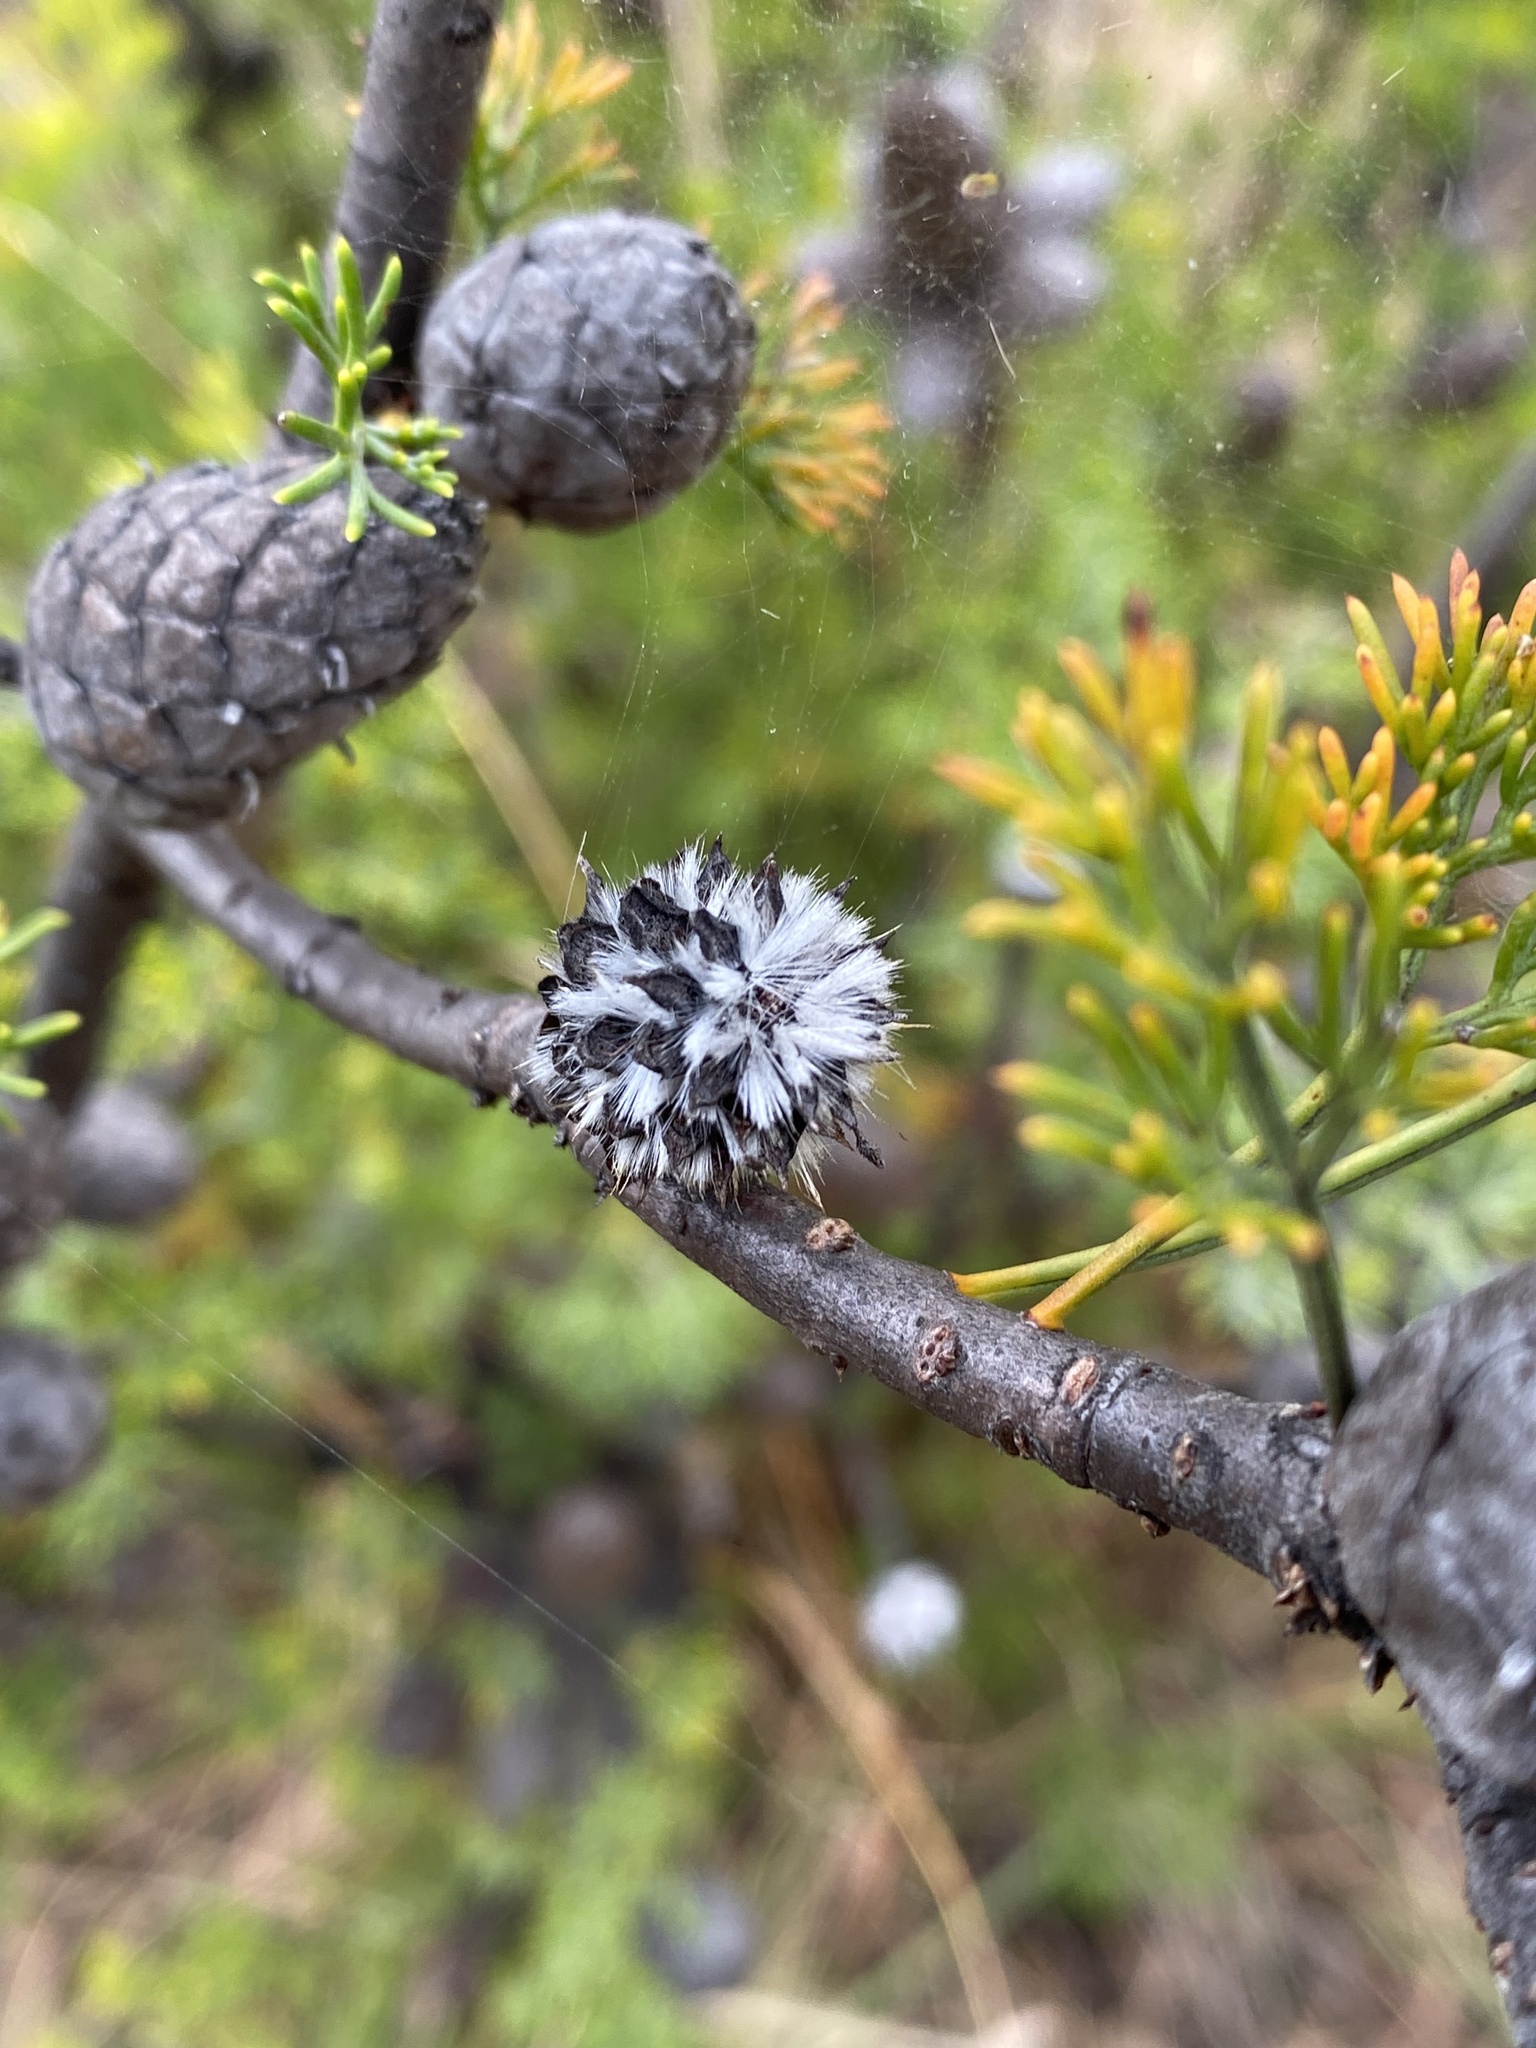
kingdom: Plantae
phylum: Tracheophyta
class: Magnoliopsida
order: Proteales
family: Proteaceae
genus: Petrophile
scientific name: Petrophile canescens
